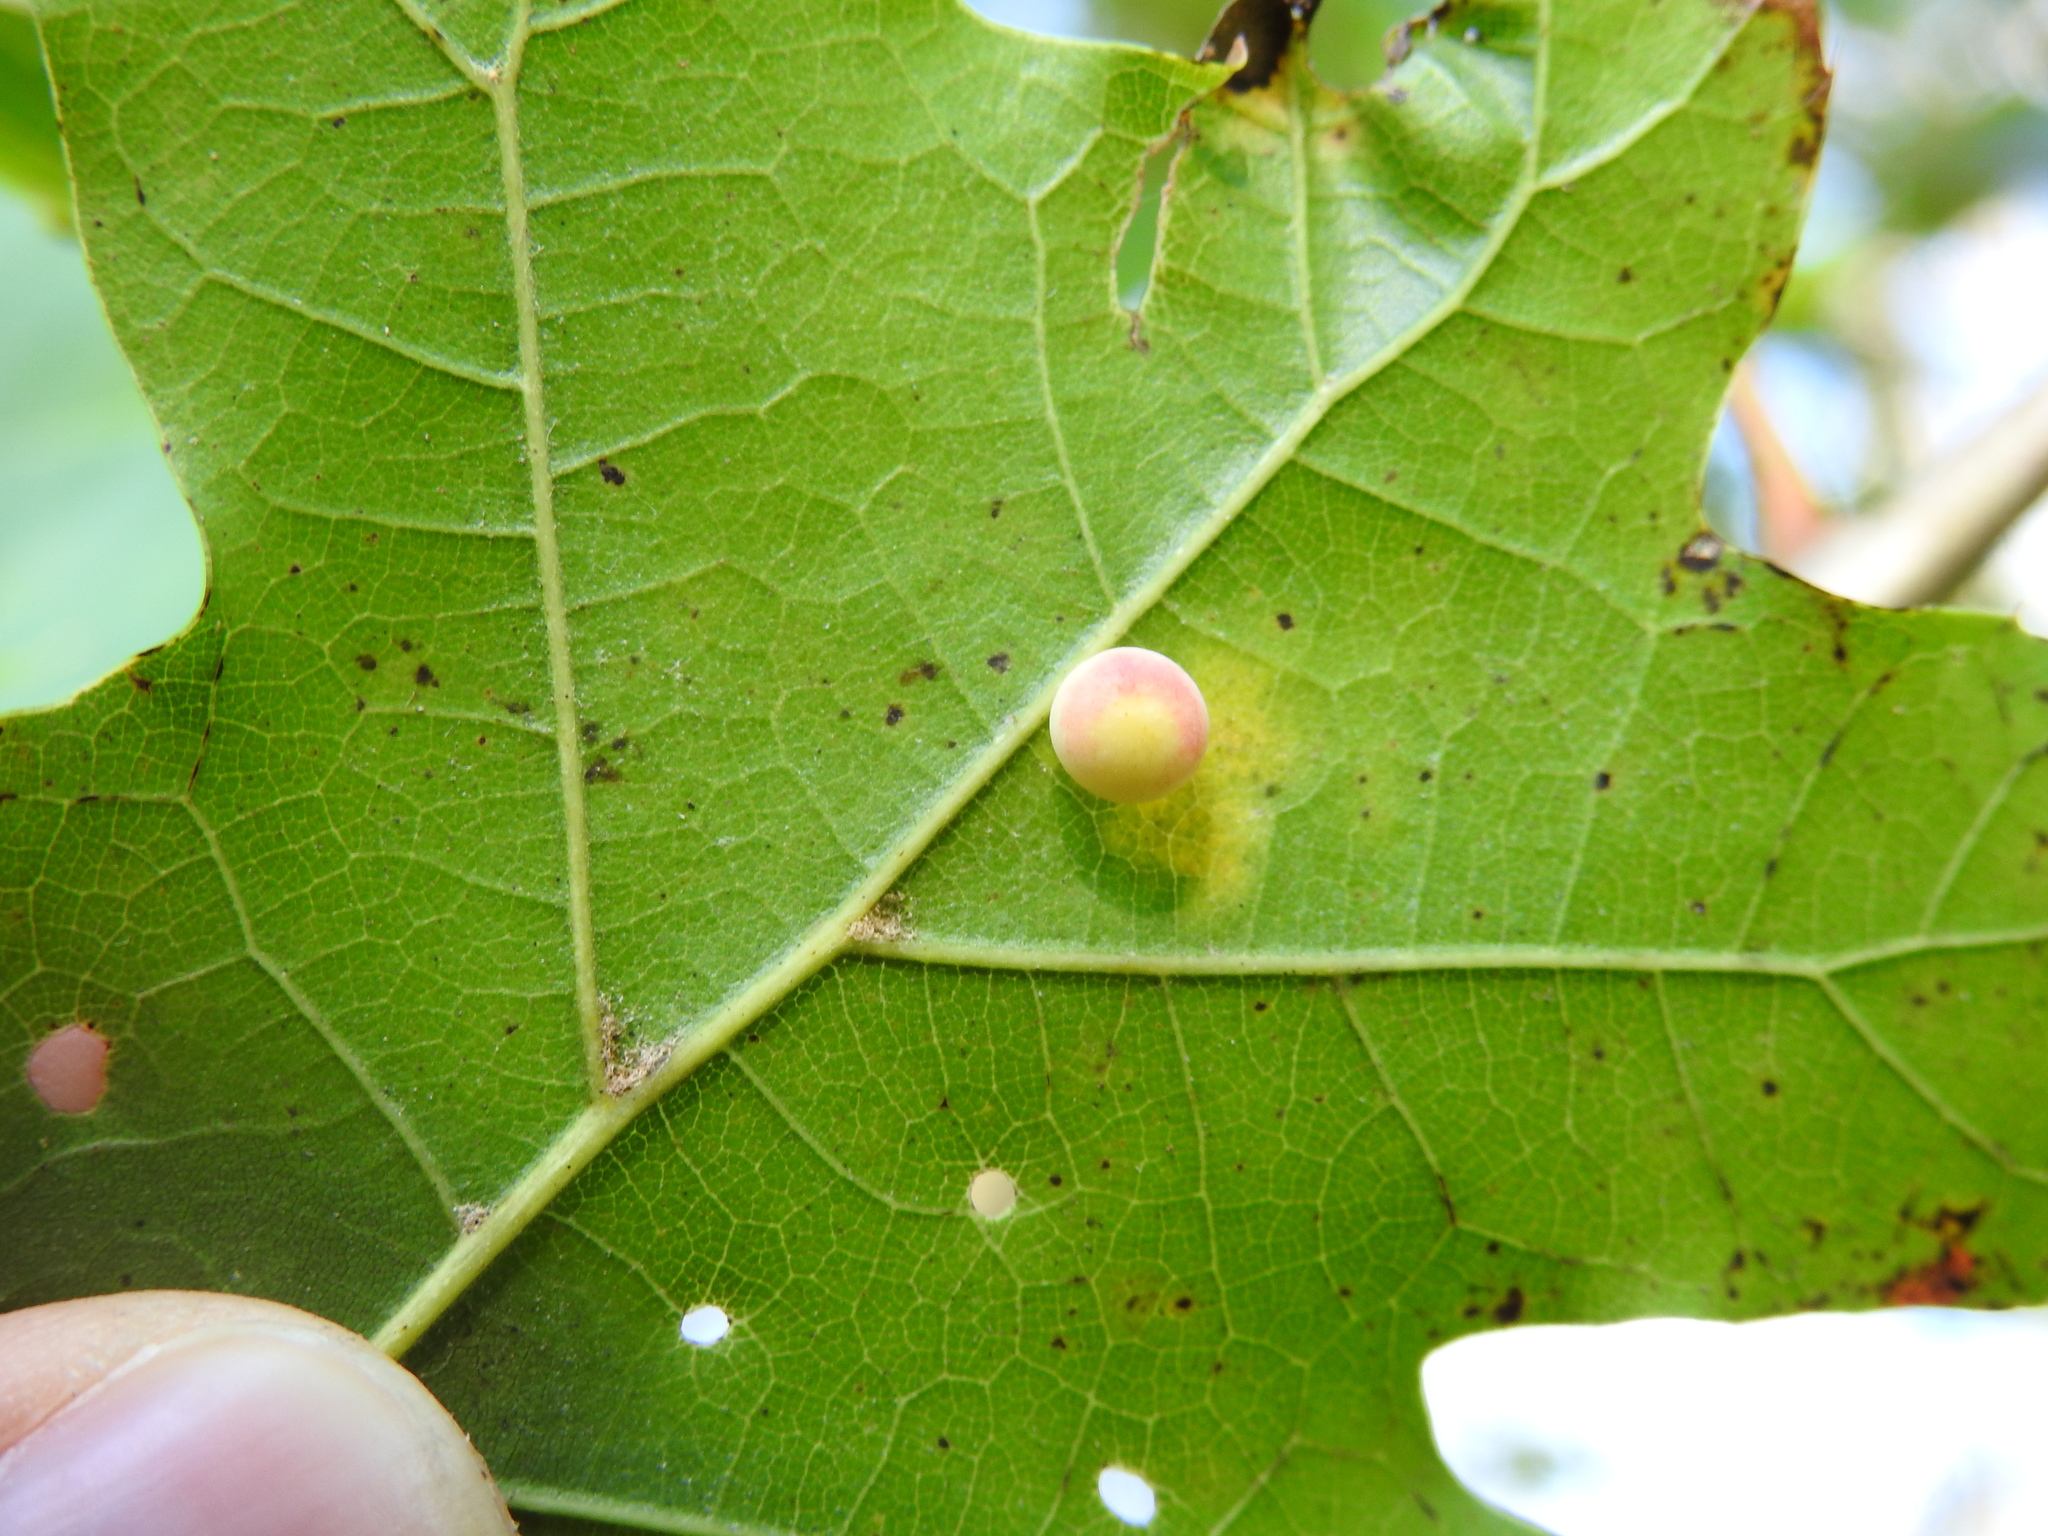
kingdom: Animalia
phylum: Arthropoda
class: Insecta
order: Hymenoptera
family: Cynipidae
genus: Zopheroteras
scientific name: Zopheroteras
